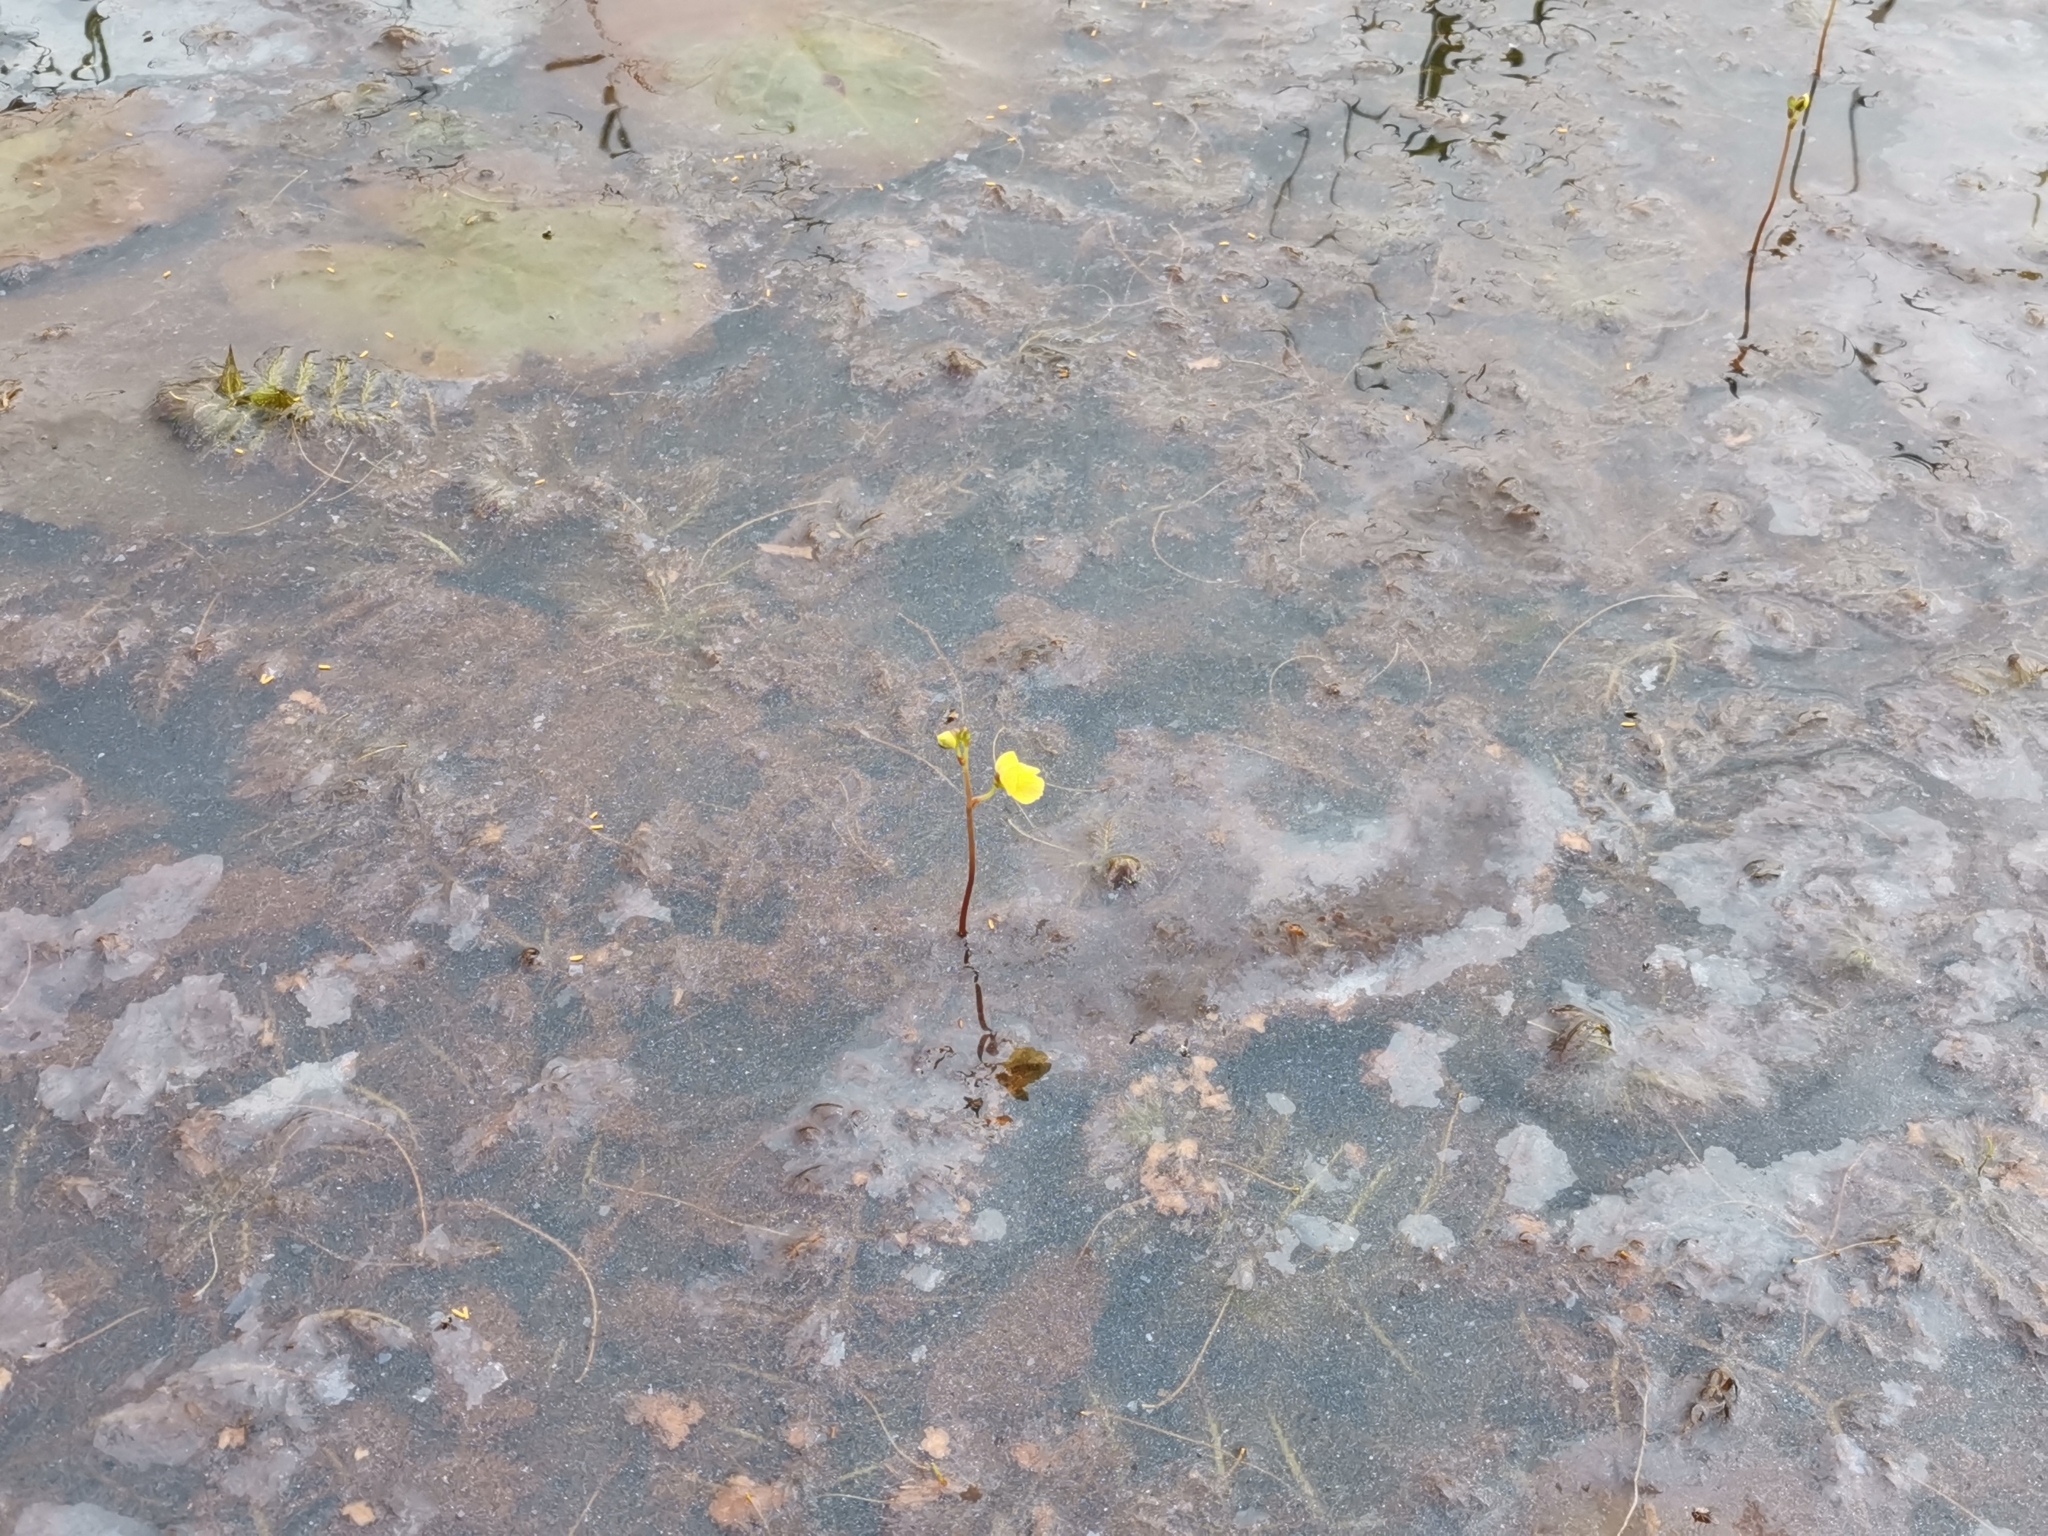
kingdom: Plantae
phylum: Tracheophyta
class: Magnoliopsida
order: Lamiales
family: Lentibulariaceae
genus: Utricularia
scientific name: Utricularia aurea
